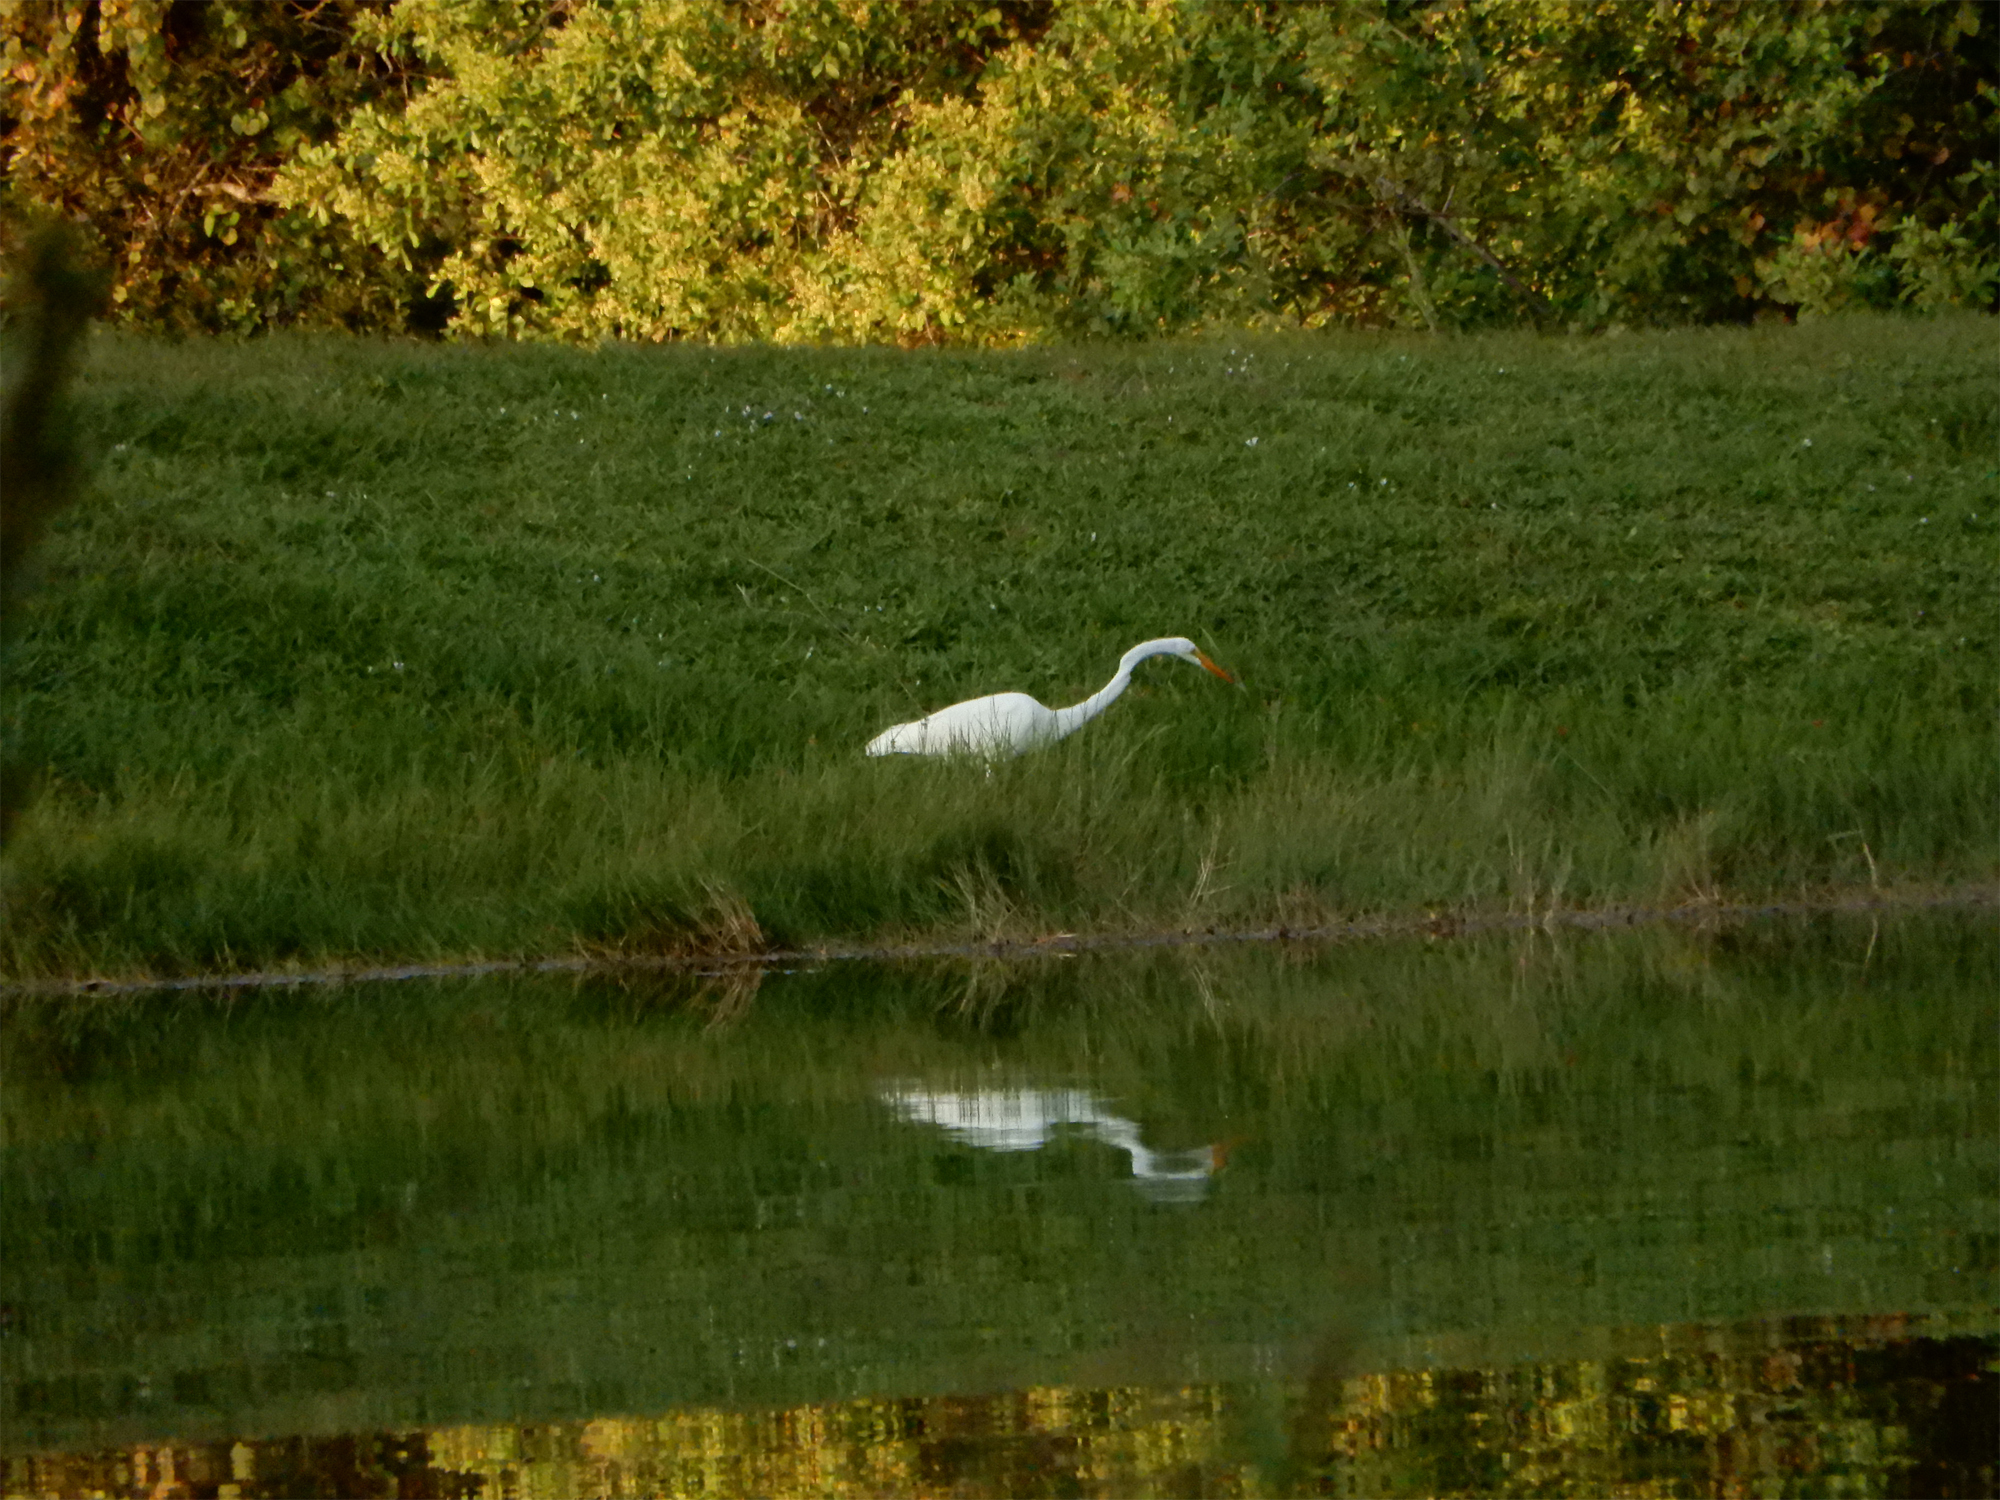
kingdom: Animalia
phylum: Chordata
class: Aves
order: Pelecaniformes
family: Ardeidae
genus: Ardea
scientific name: Ardea alba
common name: Great egret
